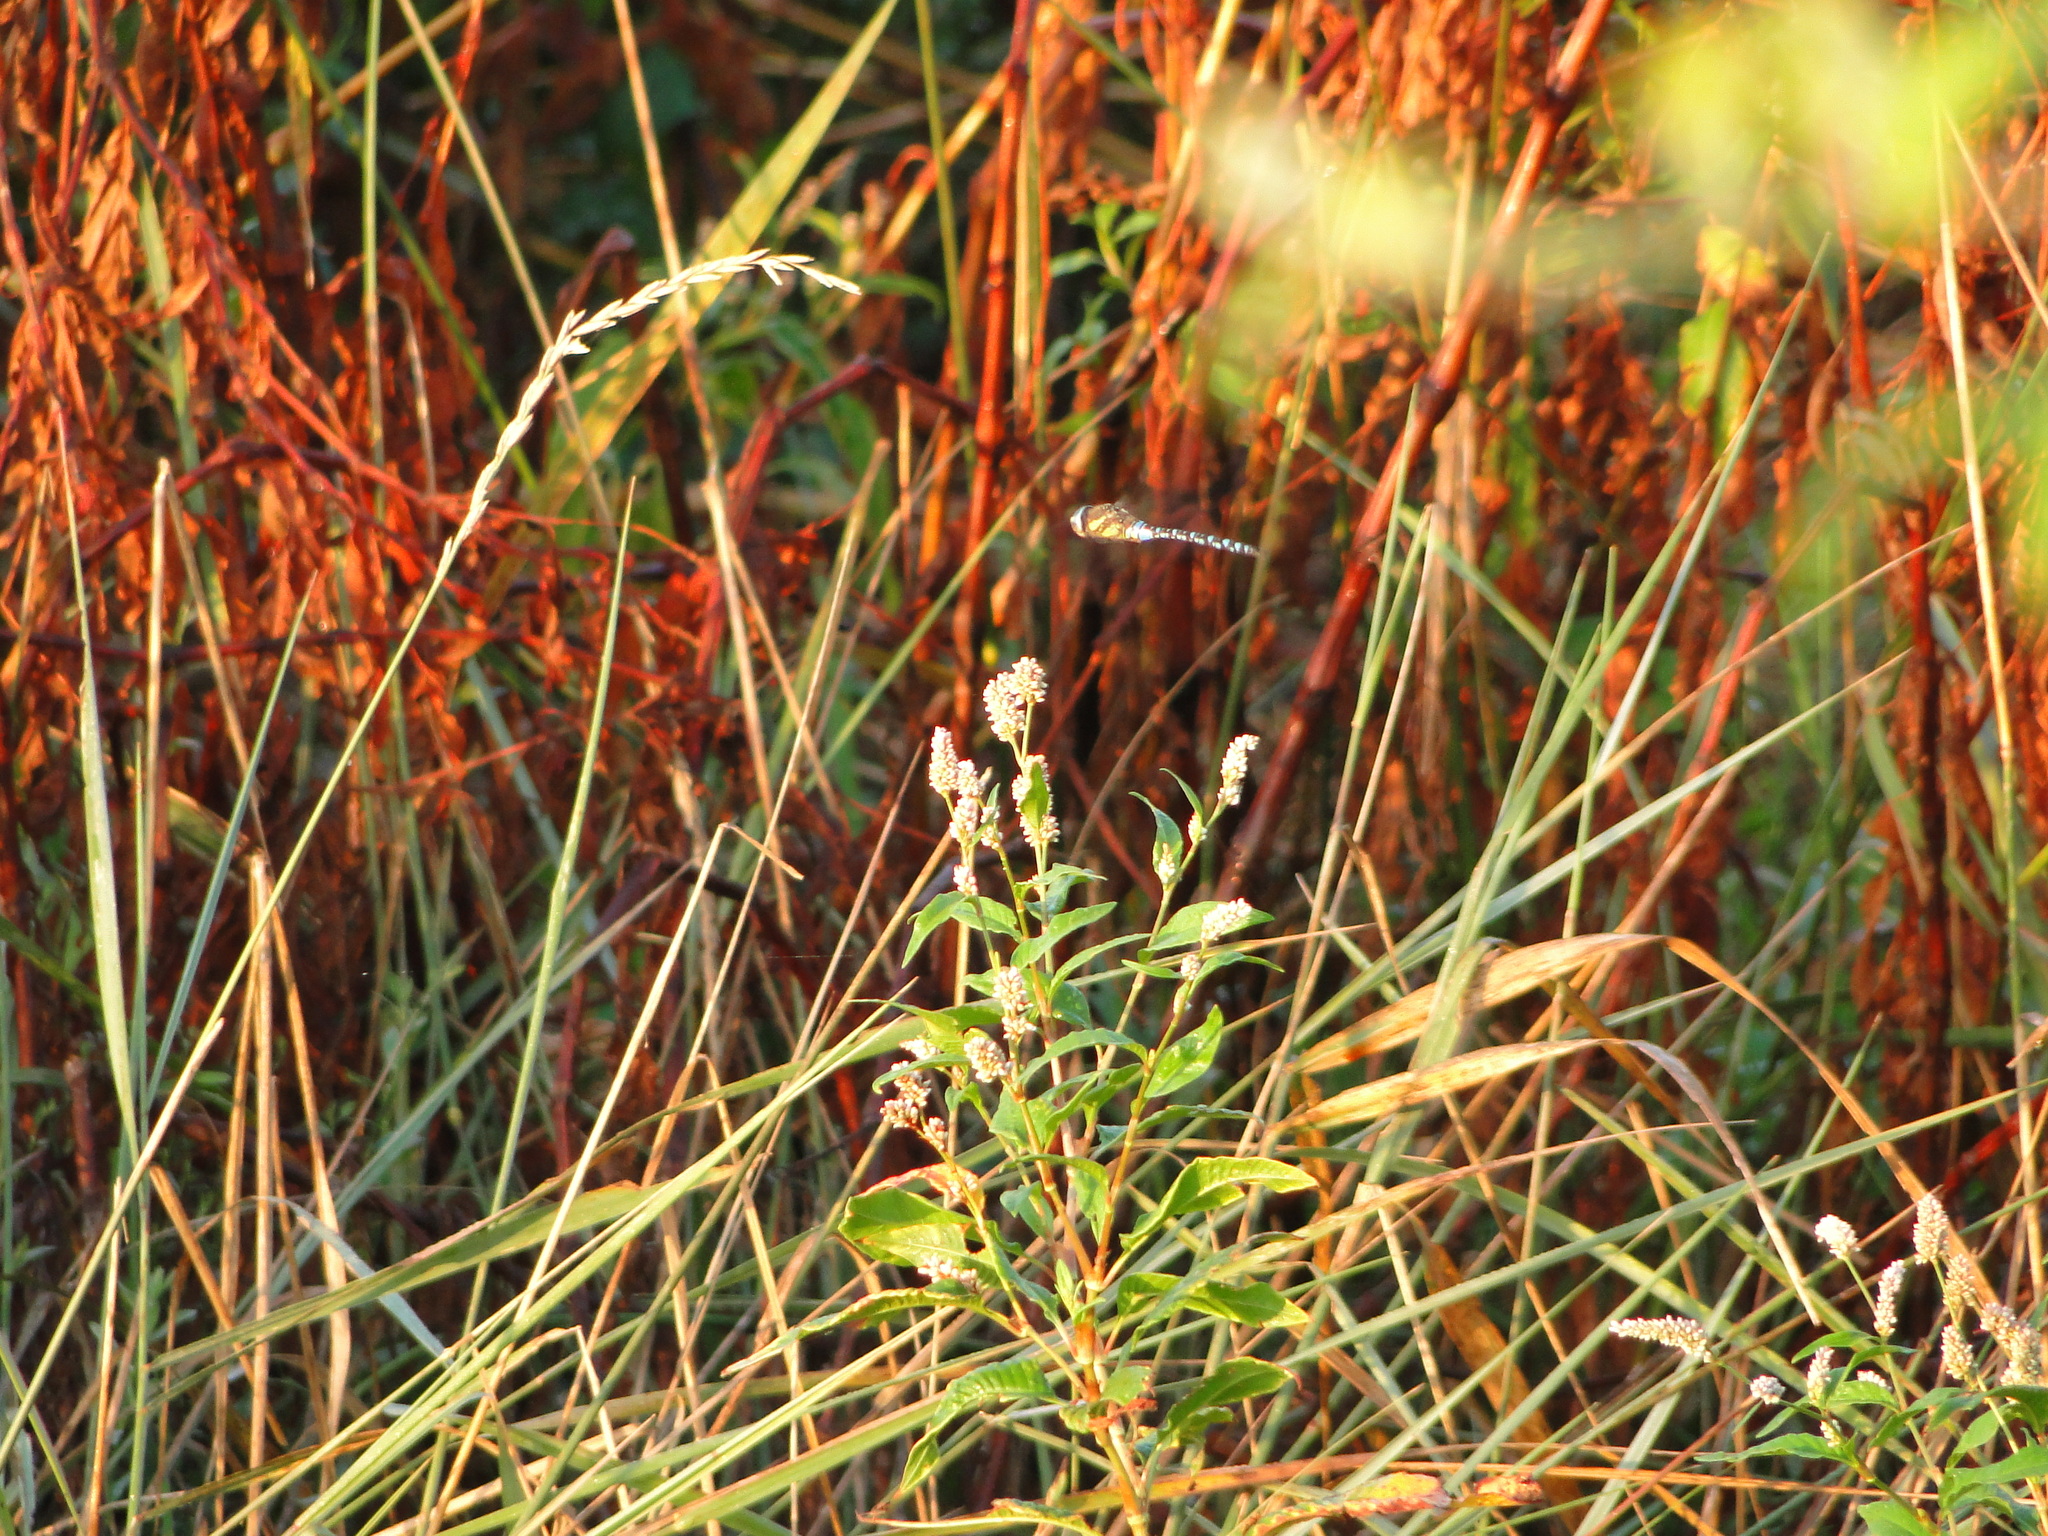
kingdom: Animalia
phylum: Arthropoda
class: Insecta
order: Odonata
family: Aeshnidae
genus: Aeshna
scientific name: Aeshna mixta
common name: Migrant hawker
